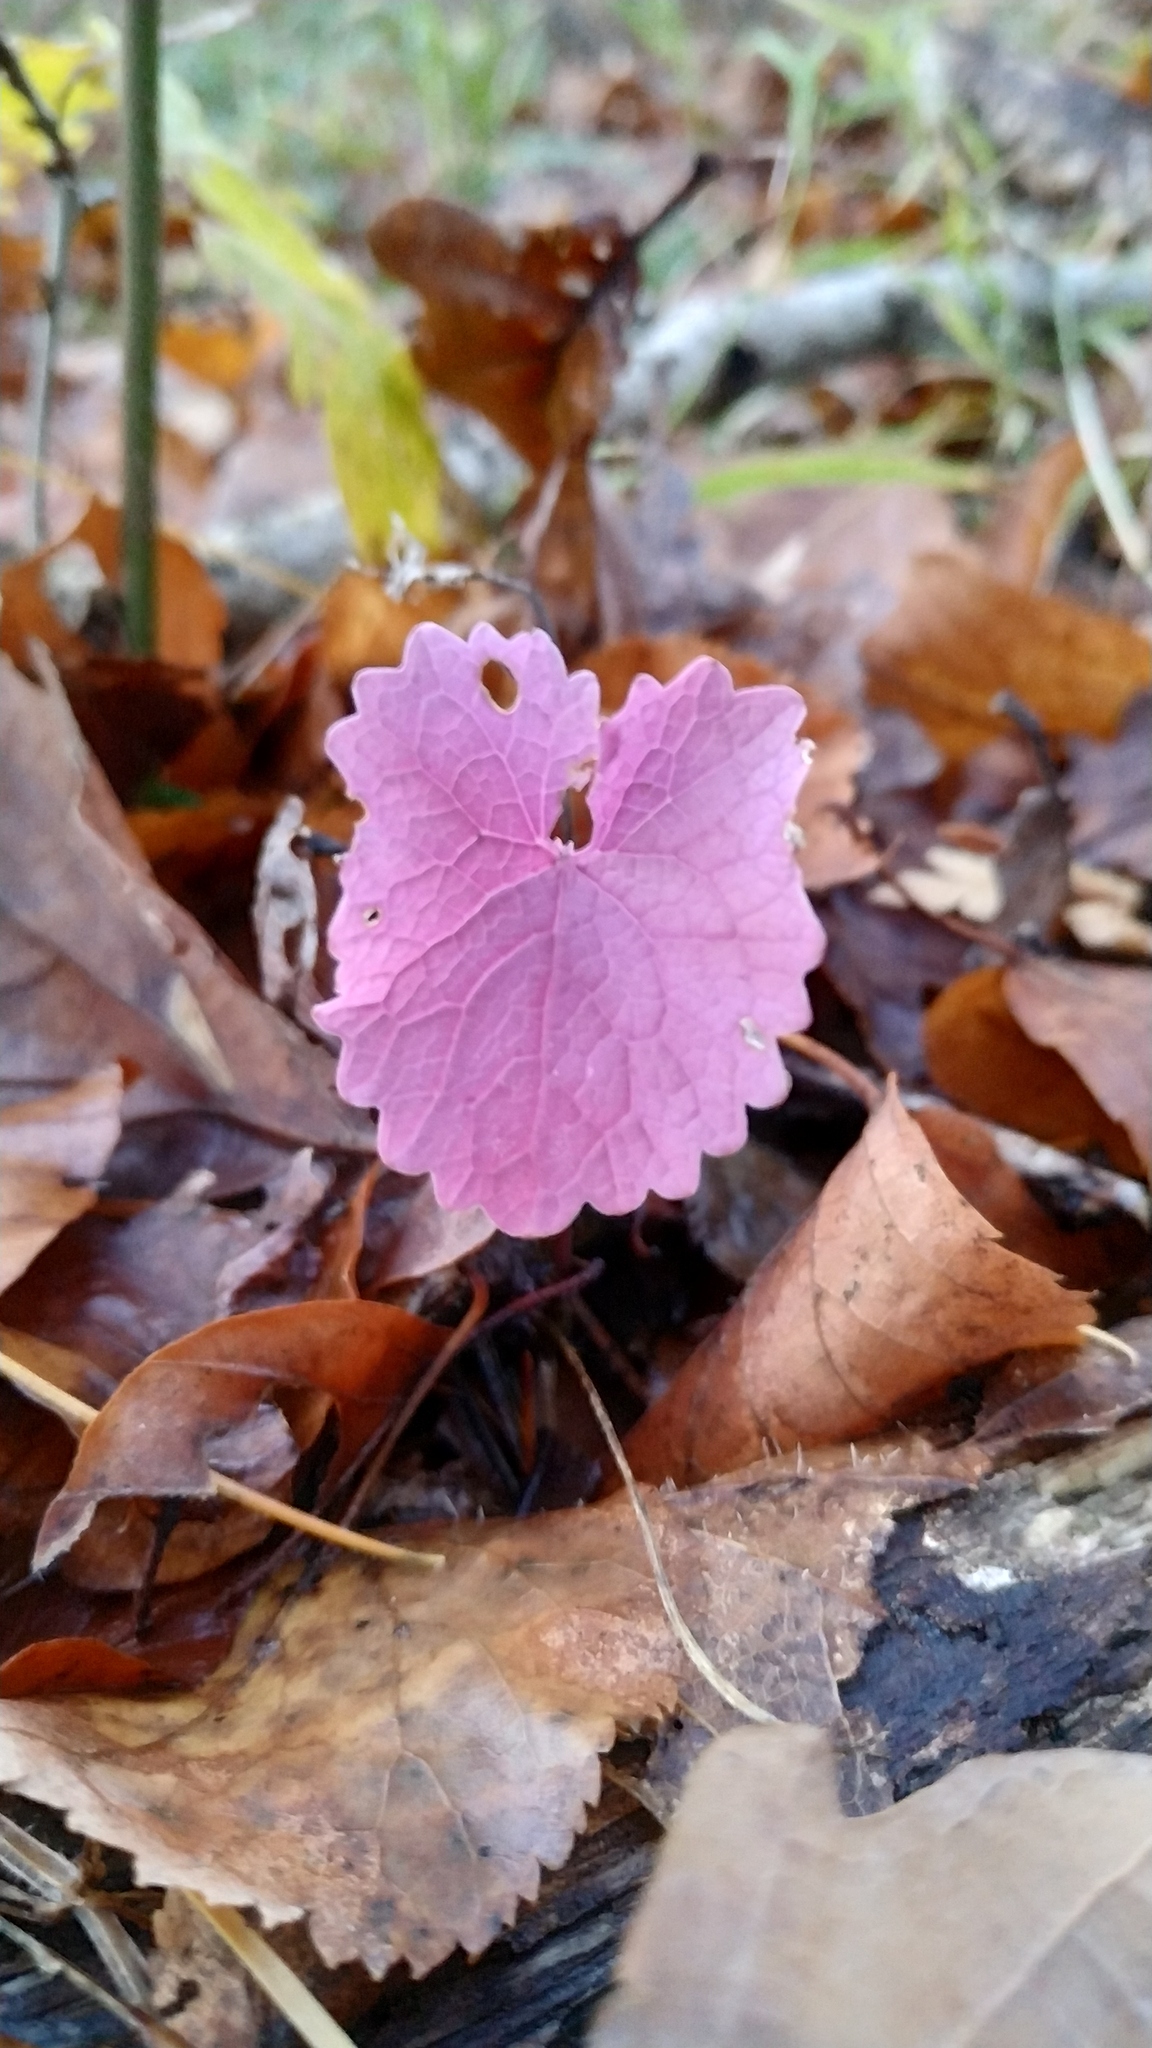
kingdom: Plantae
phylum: Tracheophyta
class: Magnoliopsida
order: Brassicales
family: Brassicaceae
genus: Alliaria
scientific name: Alliaria petiolata
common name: Garlic mustard
